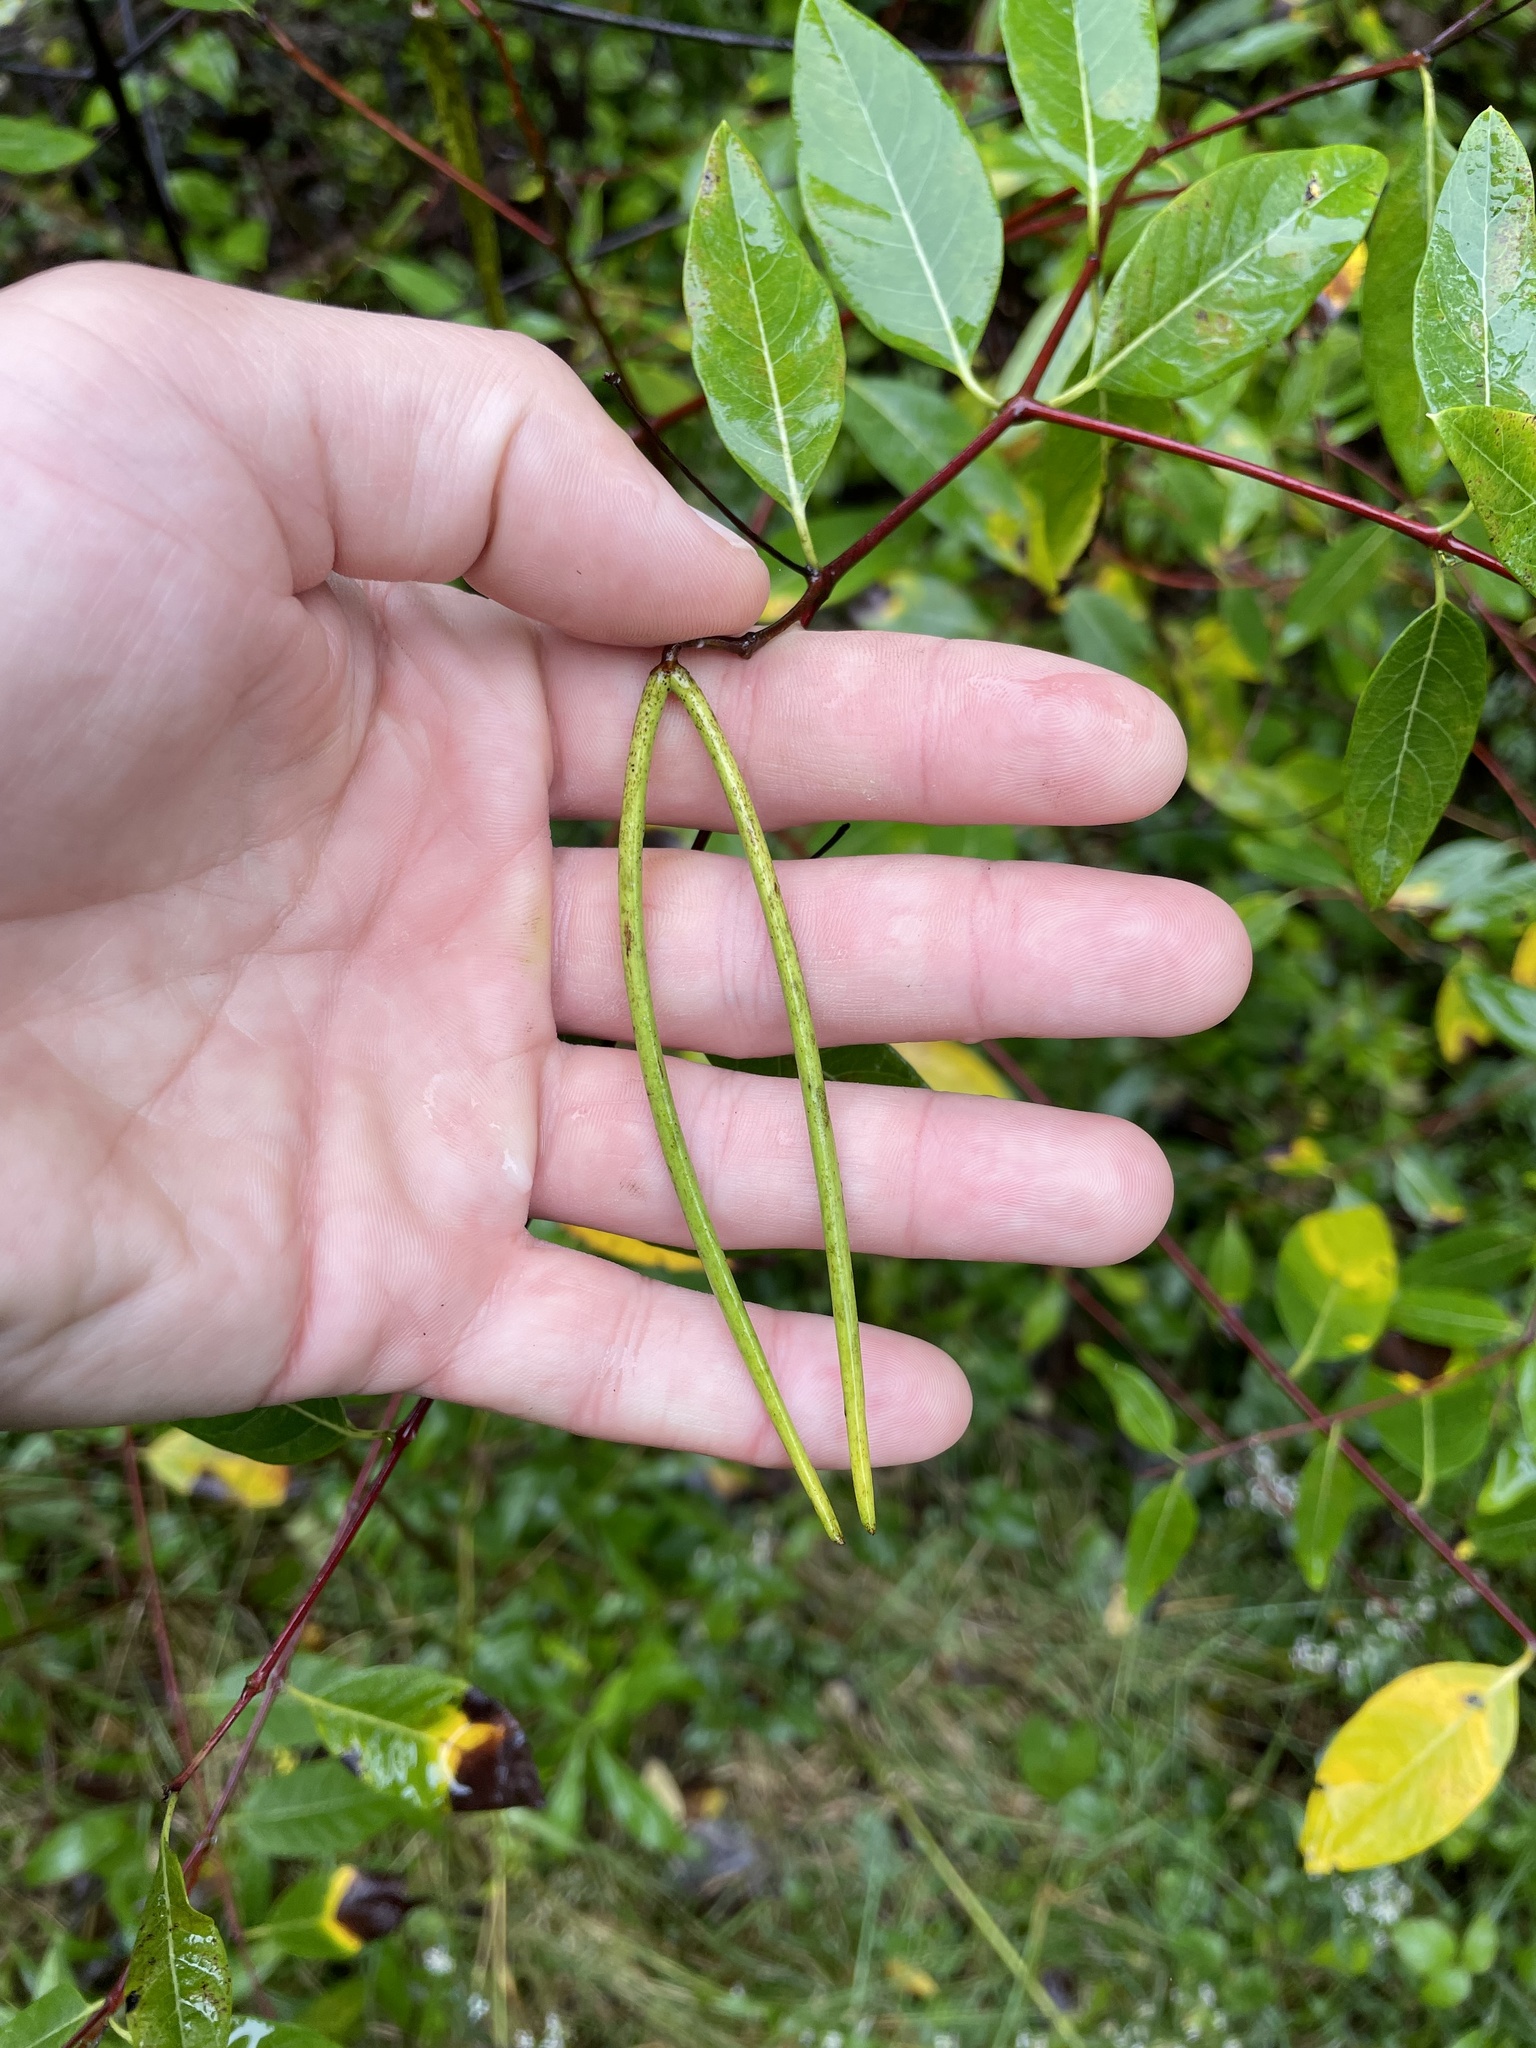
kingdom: Plantae
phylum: Tracheophyta
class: Magnoliopsida
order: Gentianales
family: Apocynaceae
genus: Apocynum
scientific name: Apocynum cannabinum
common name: Hemp dogbane
